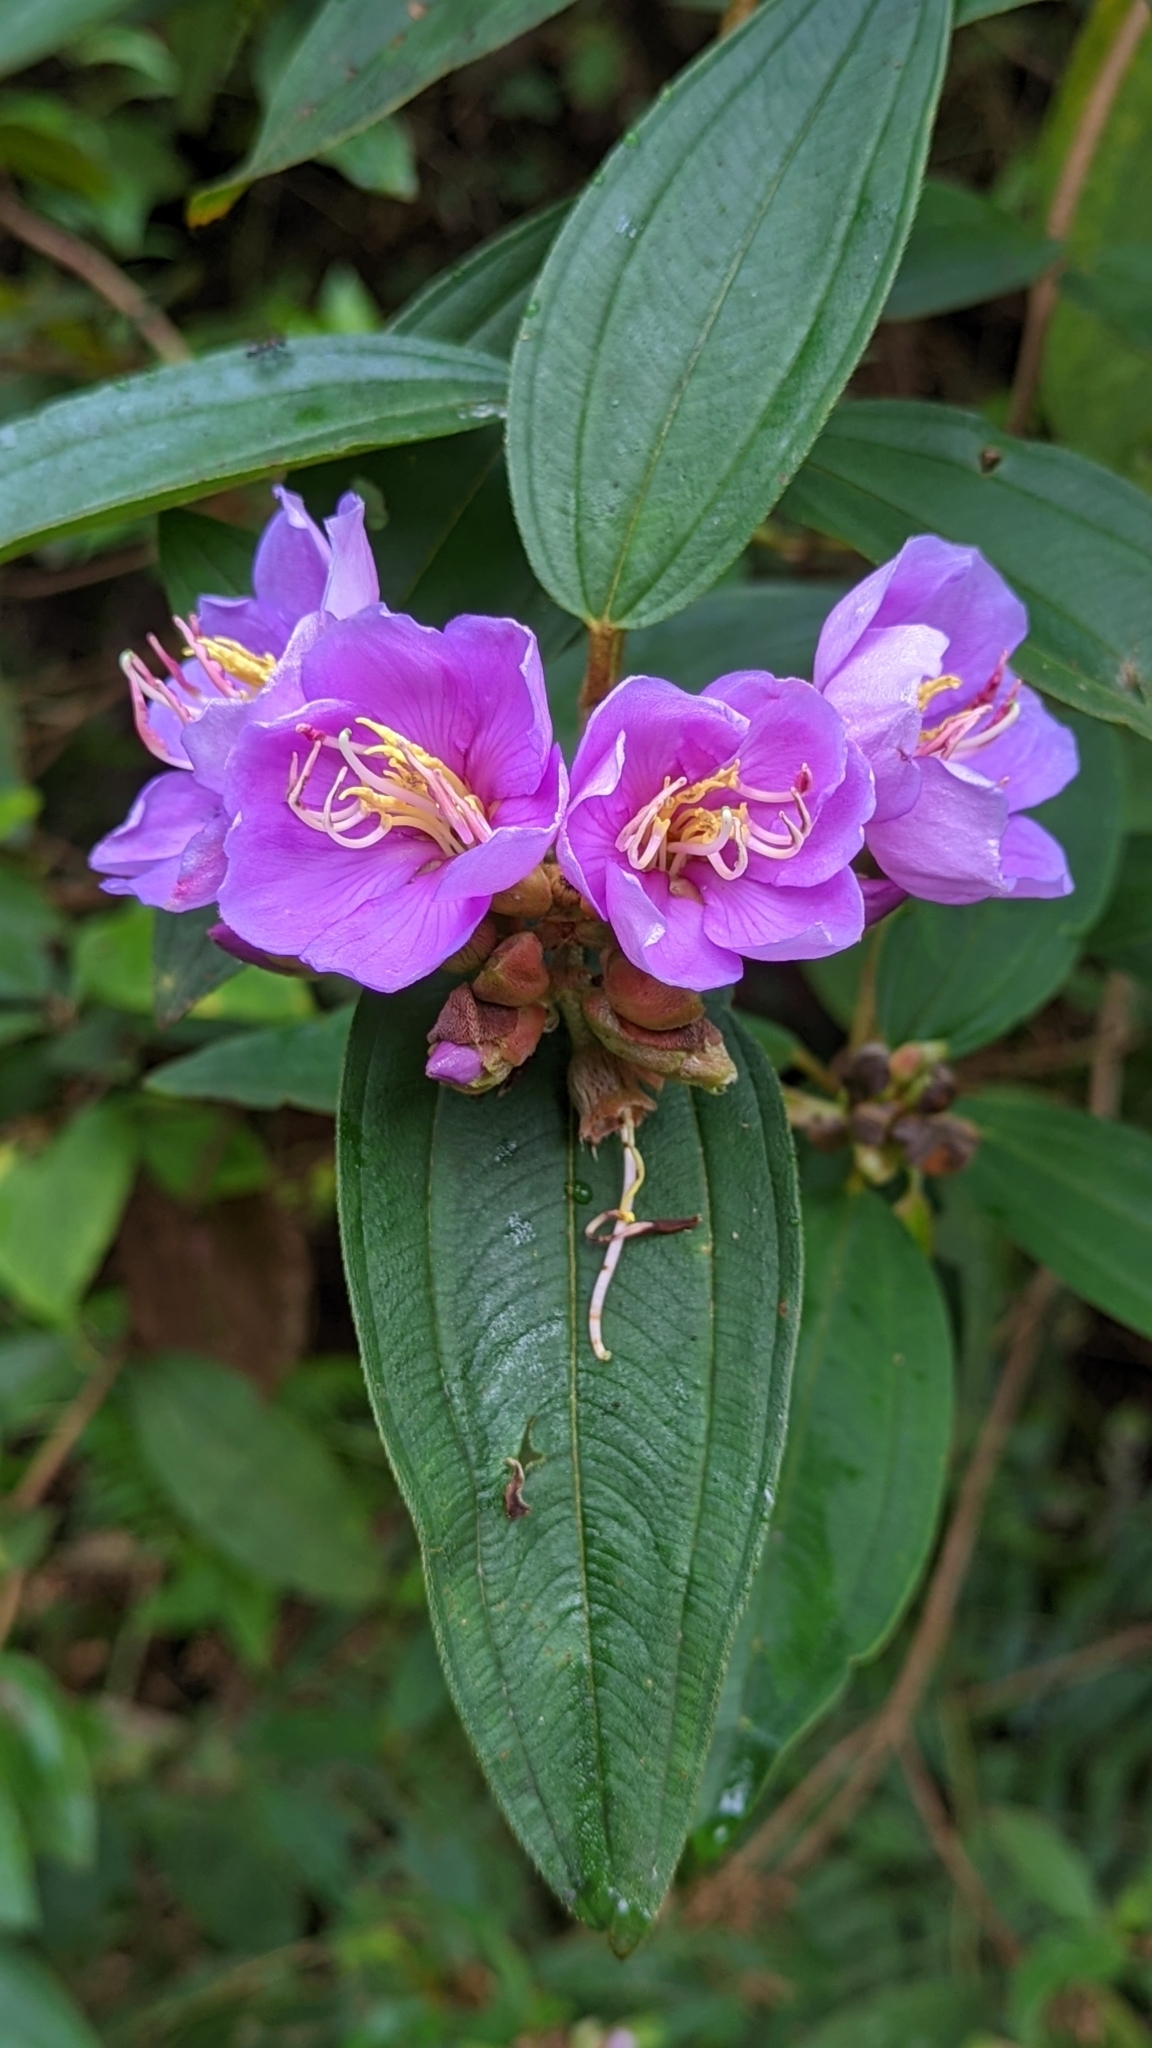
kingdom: Plantae
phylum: Tracheophyta
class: Magnoliopsida
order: Myrtales
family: Melastomataceae
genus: Melastoma
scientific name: Melastoma malabathricum
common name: Indian-rhododendron
